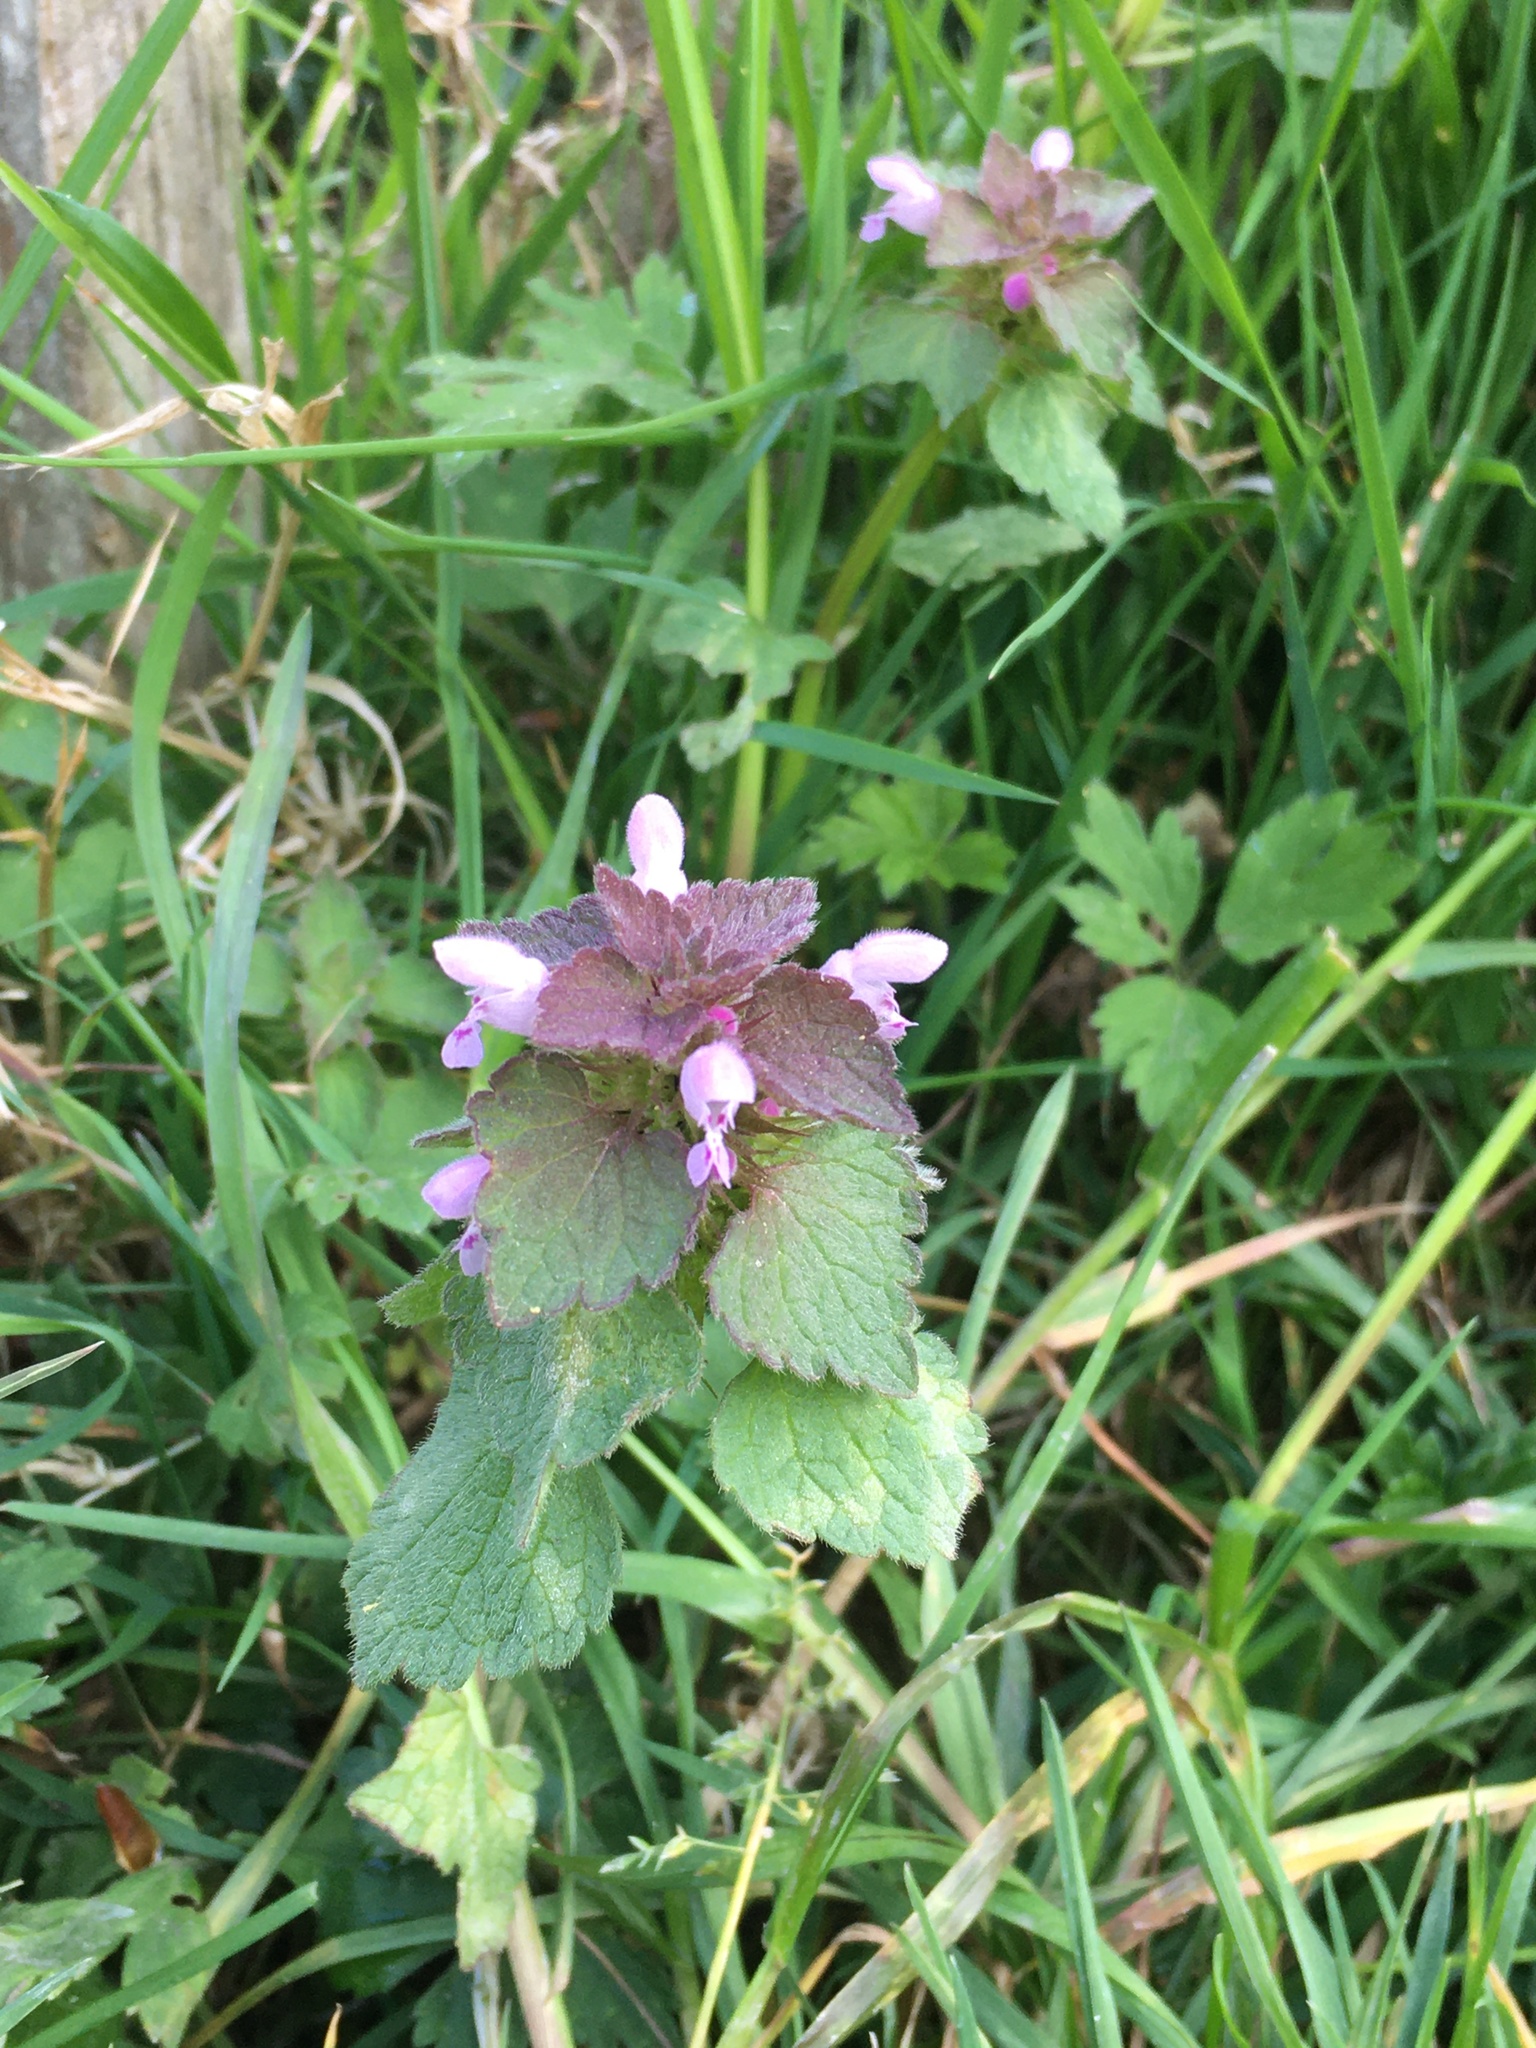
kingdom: Plantae
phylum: Tracheophyta
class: Magnoliopsida
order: Lamiales
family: Lamiaceae
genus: Lamium
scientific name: Lamium purpureum
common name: Red dead-nettle
